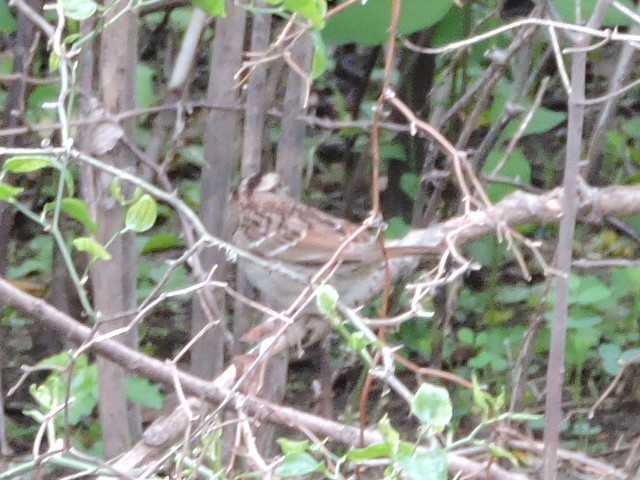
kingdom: Animalia
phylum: Chordata
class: Aves
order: Passeriformes
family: Passerellidae
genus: Zonotrichia
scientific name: Zonotrichia albicollis
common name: White-throated sparrow
